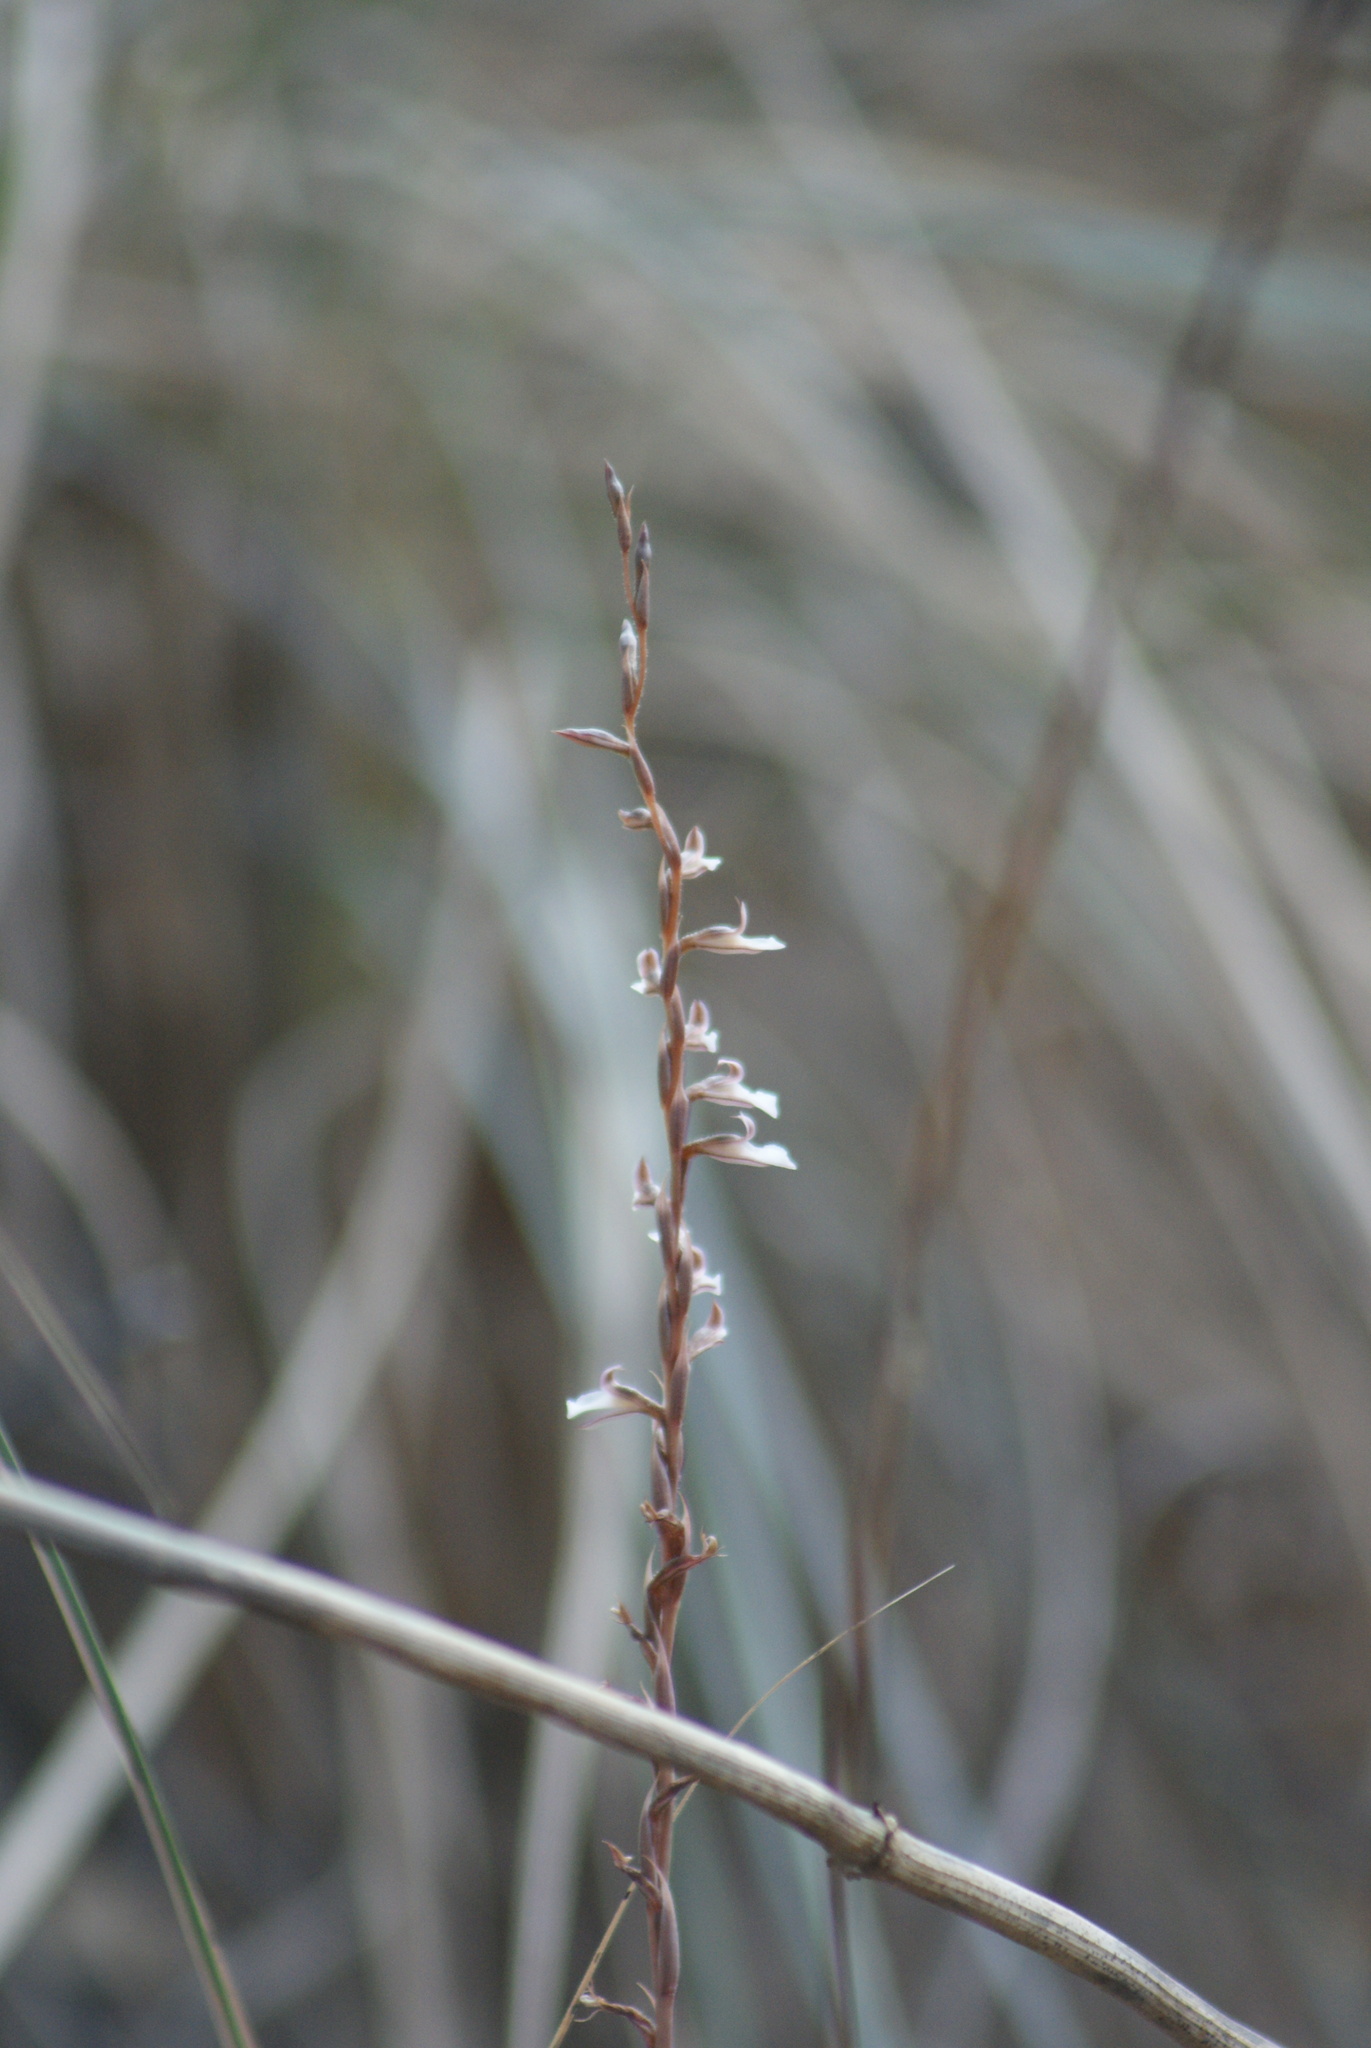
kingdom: Plantae
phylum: Tracheophyta
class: Liliopsida
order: Asparagales
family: Orchidaceae
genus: Greenwoodiella
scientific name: Greenwoodiella micrantha
